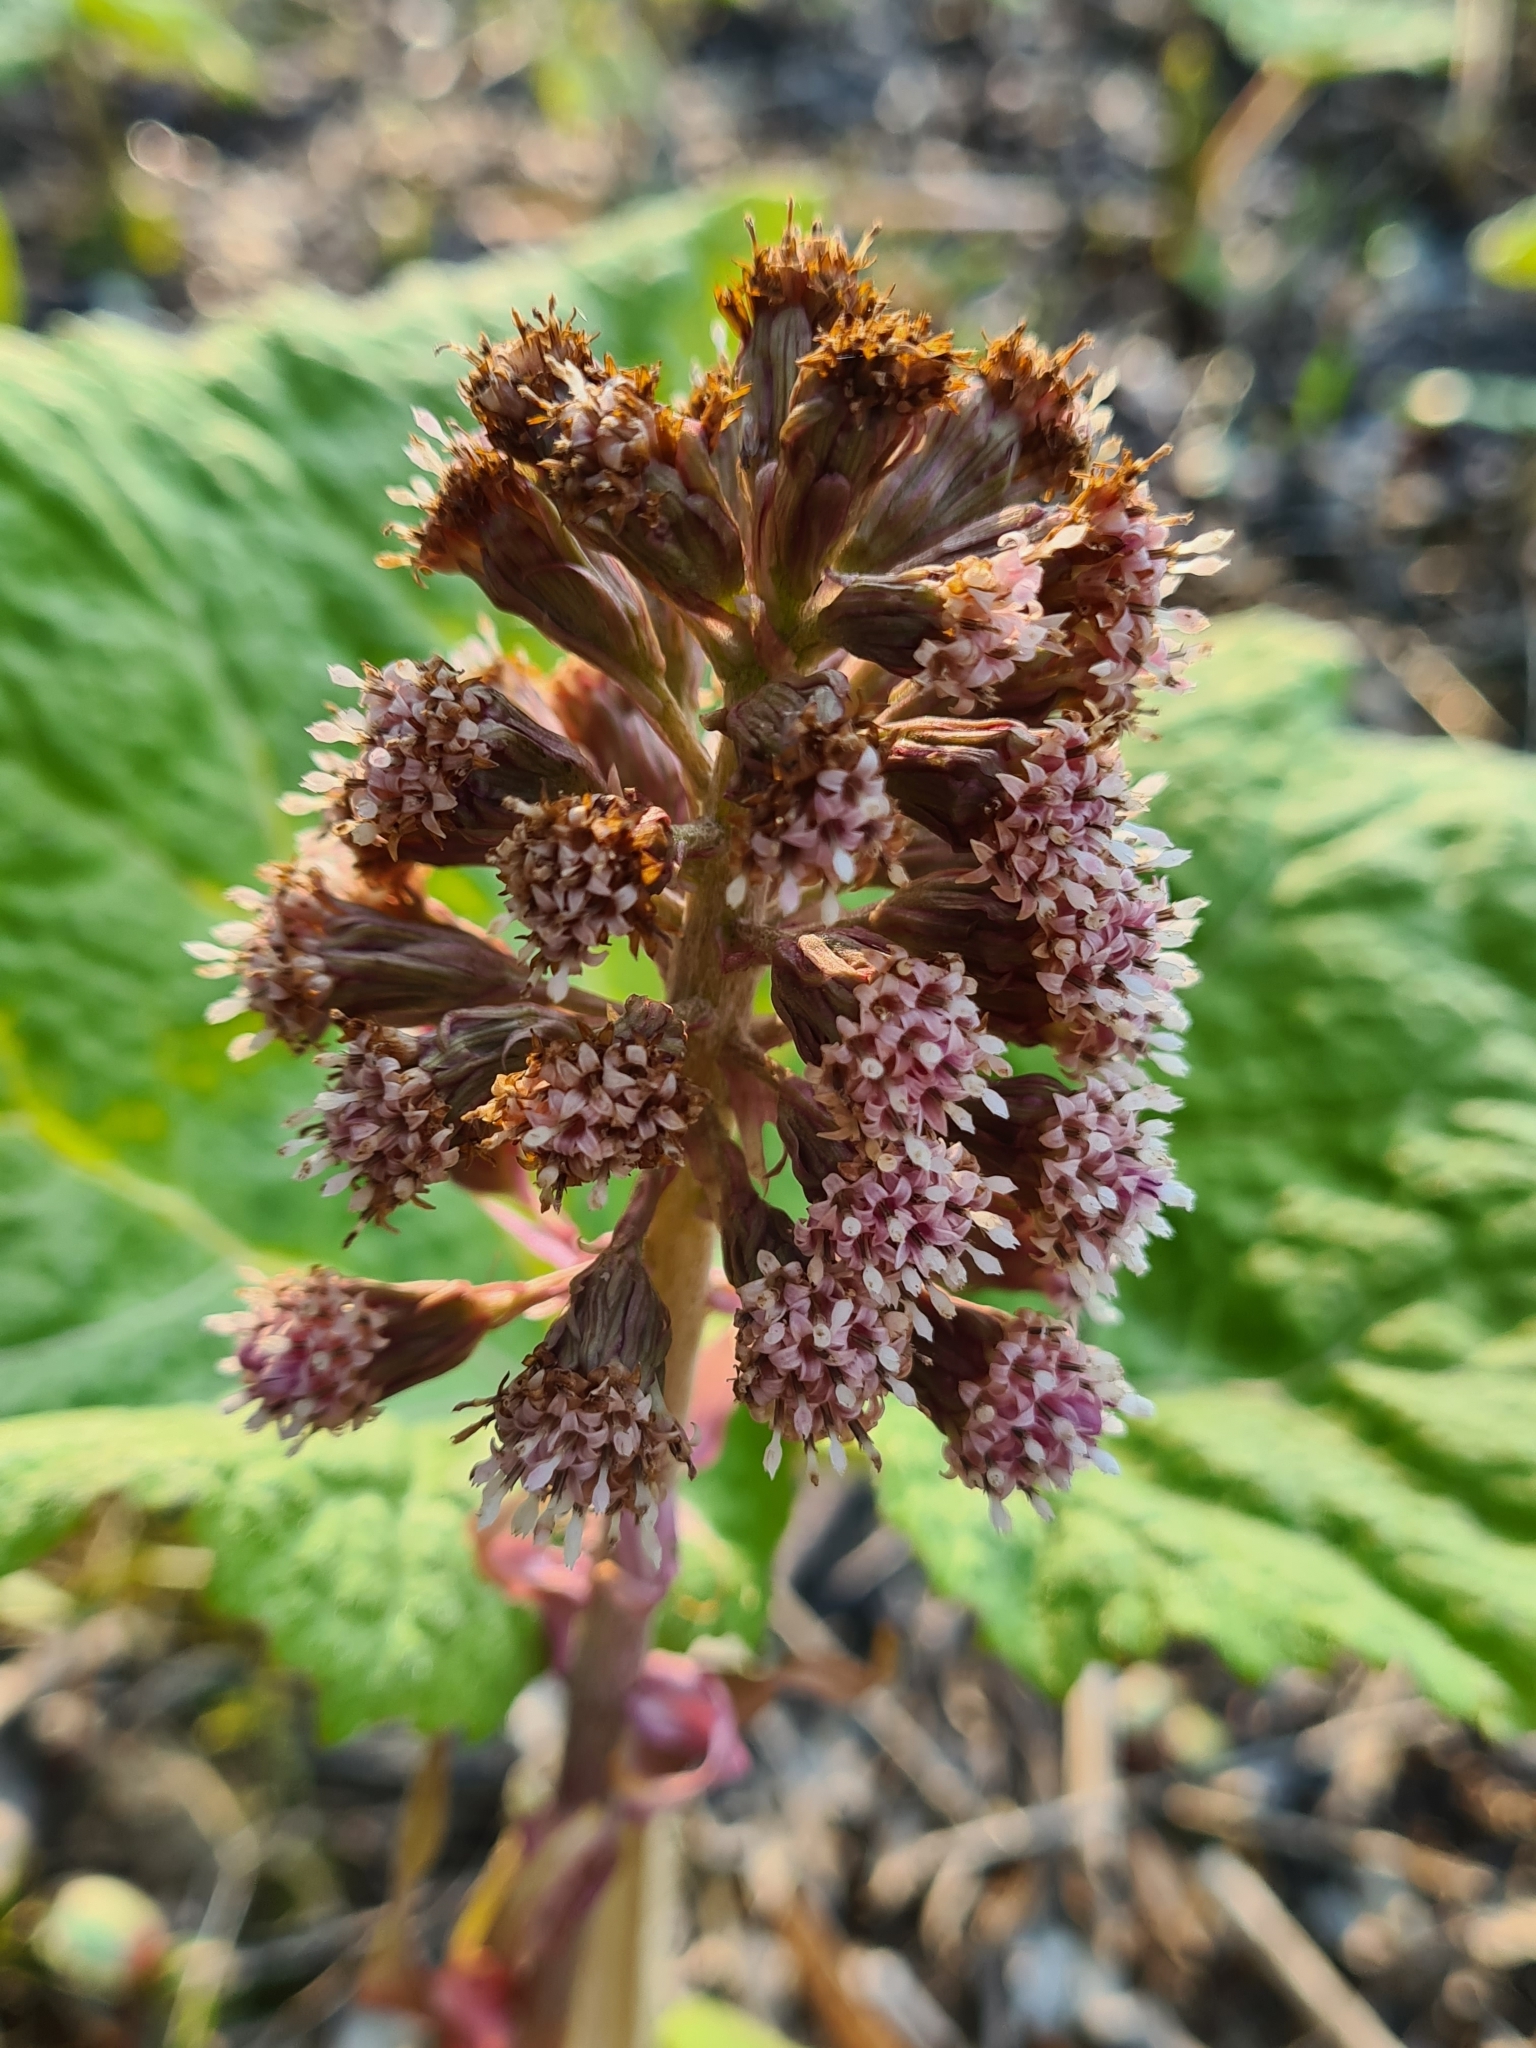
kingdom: Plantae
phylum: Tracheophyta
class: Magnoliopsida
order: Asterales
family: Asteraceae
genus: Petasites
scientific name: Petasites hybridus
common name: Butterbur
